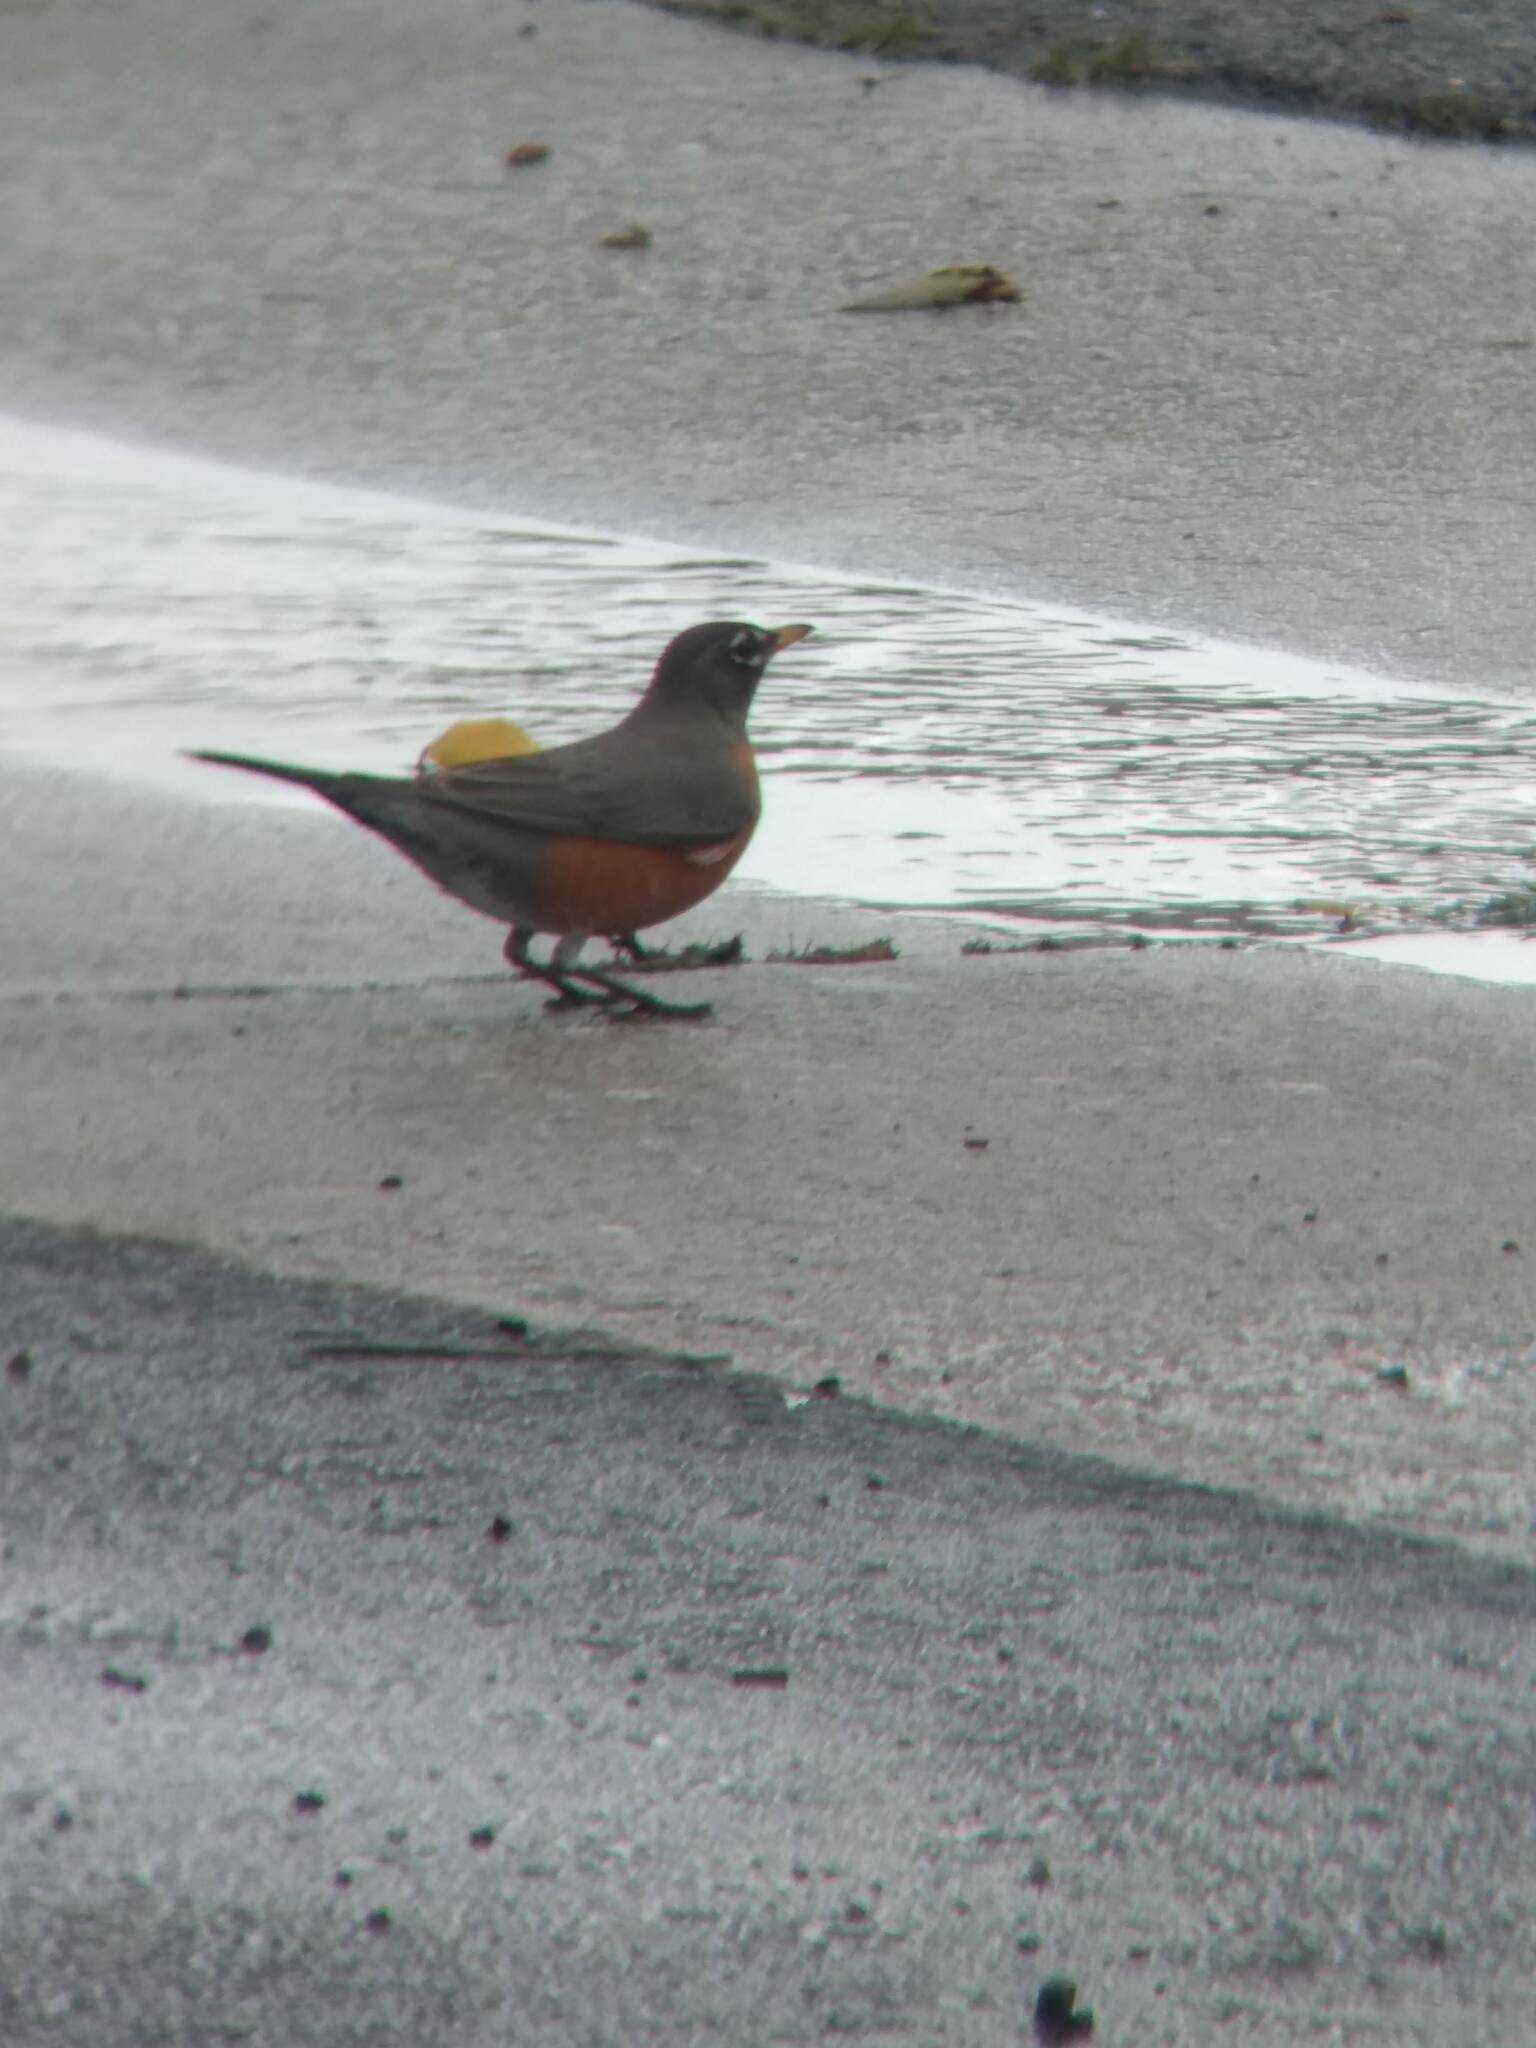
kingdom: Animalia
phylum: Chordata
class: Aves
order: Passeriformes
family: Turdidae
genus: Turdus
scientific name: Turdus migratorius
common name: American robin
